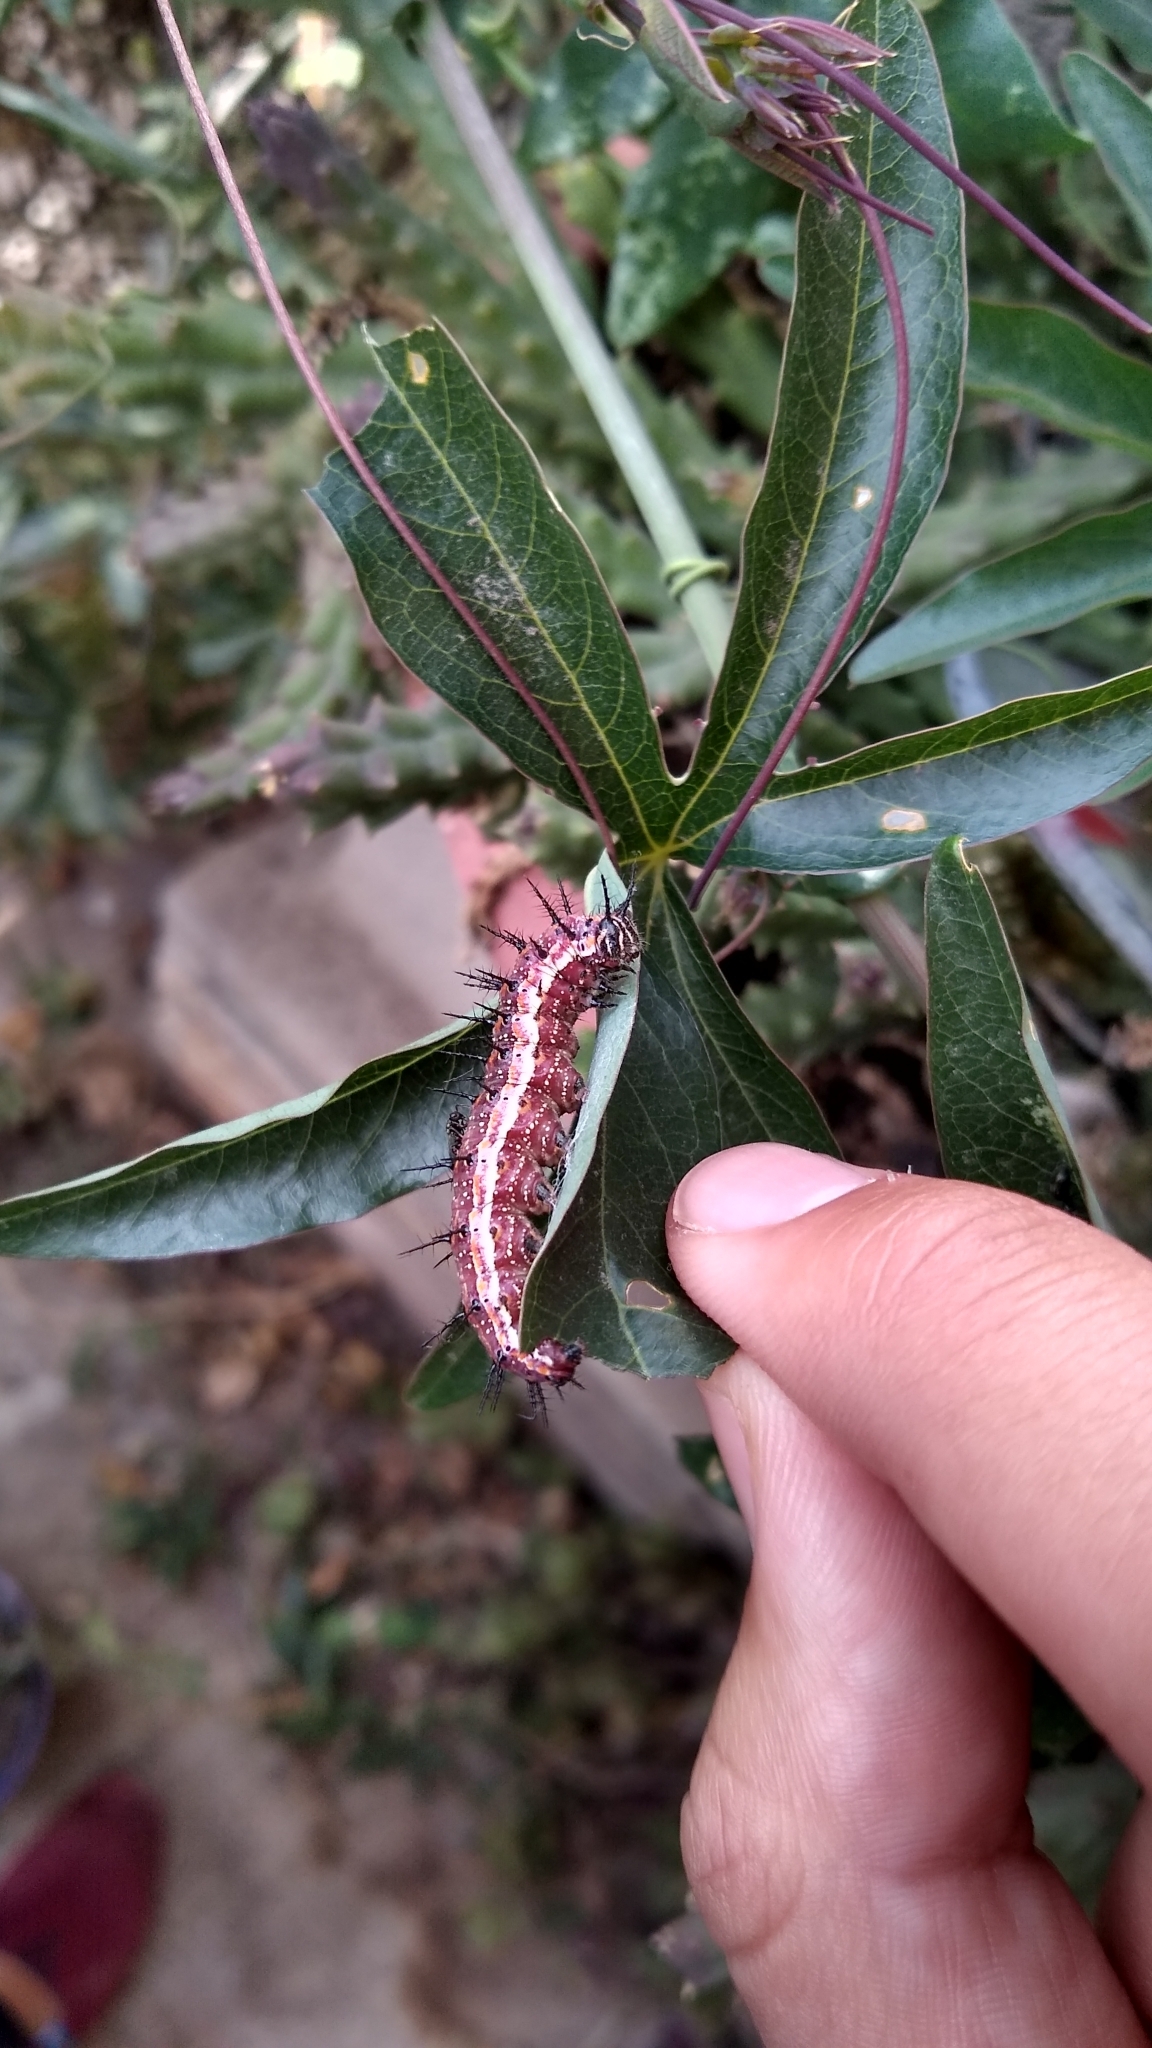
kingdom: Animalia
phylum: Arthropoda
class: Insecta
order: Lepidoptera
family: Nymphalidae
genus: Dione
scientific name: Dione vanillae
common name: Gulf fritillary
